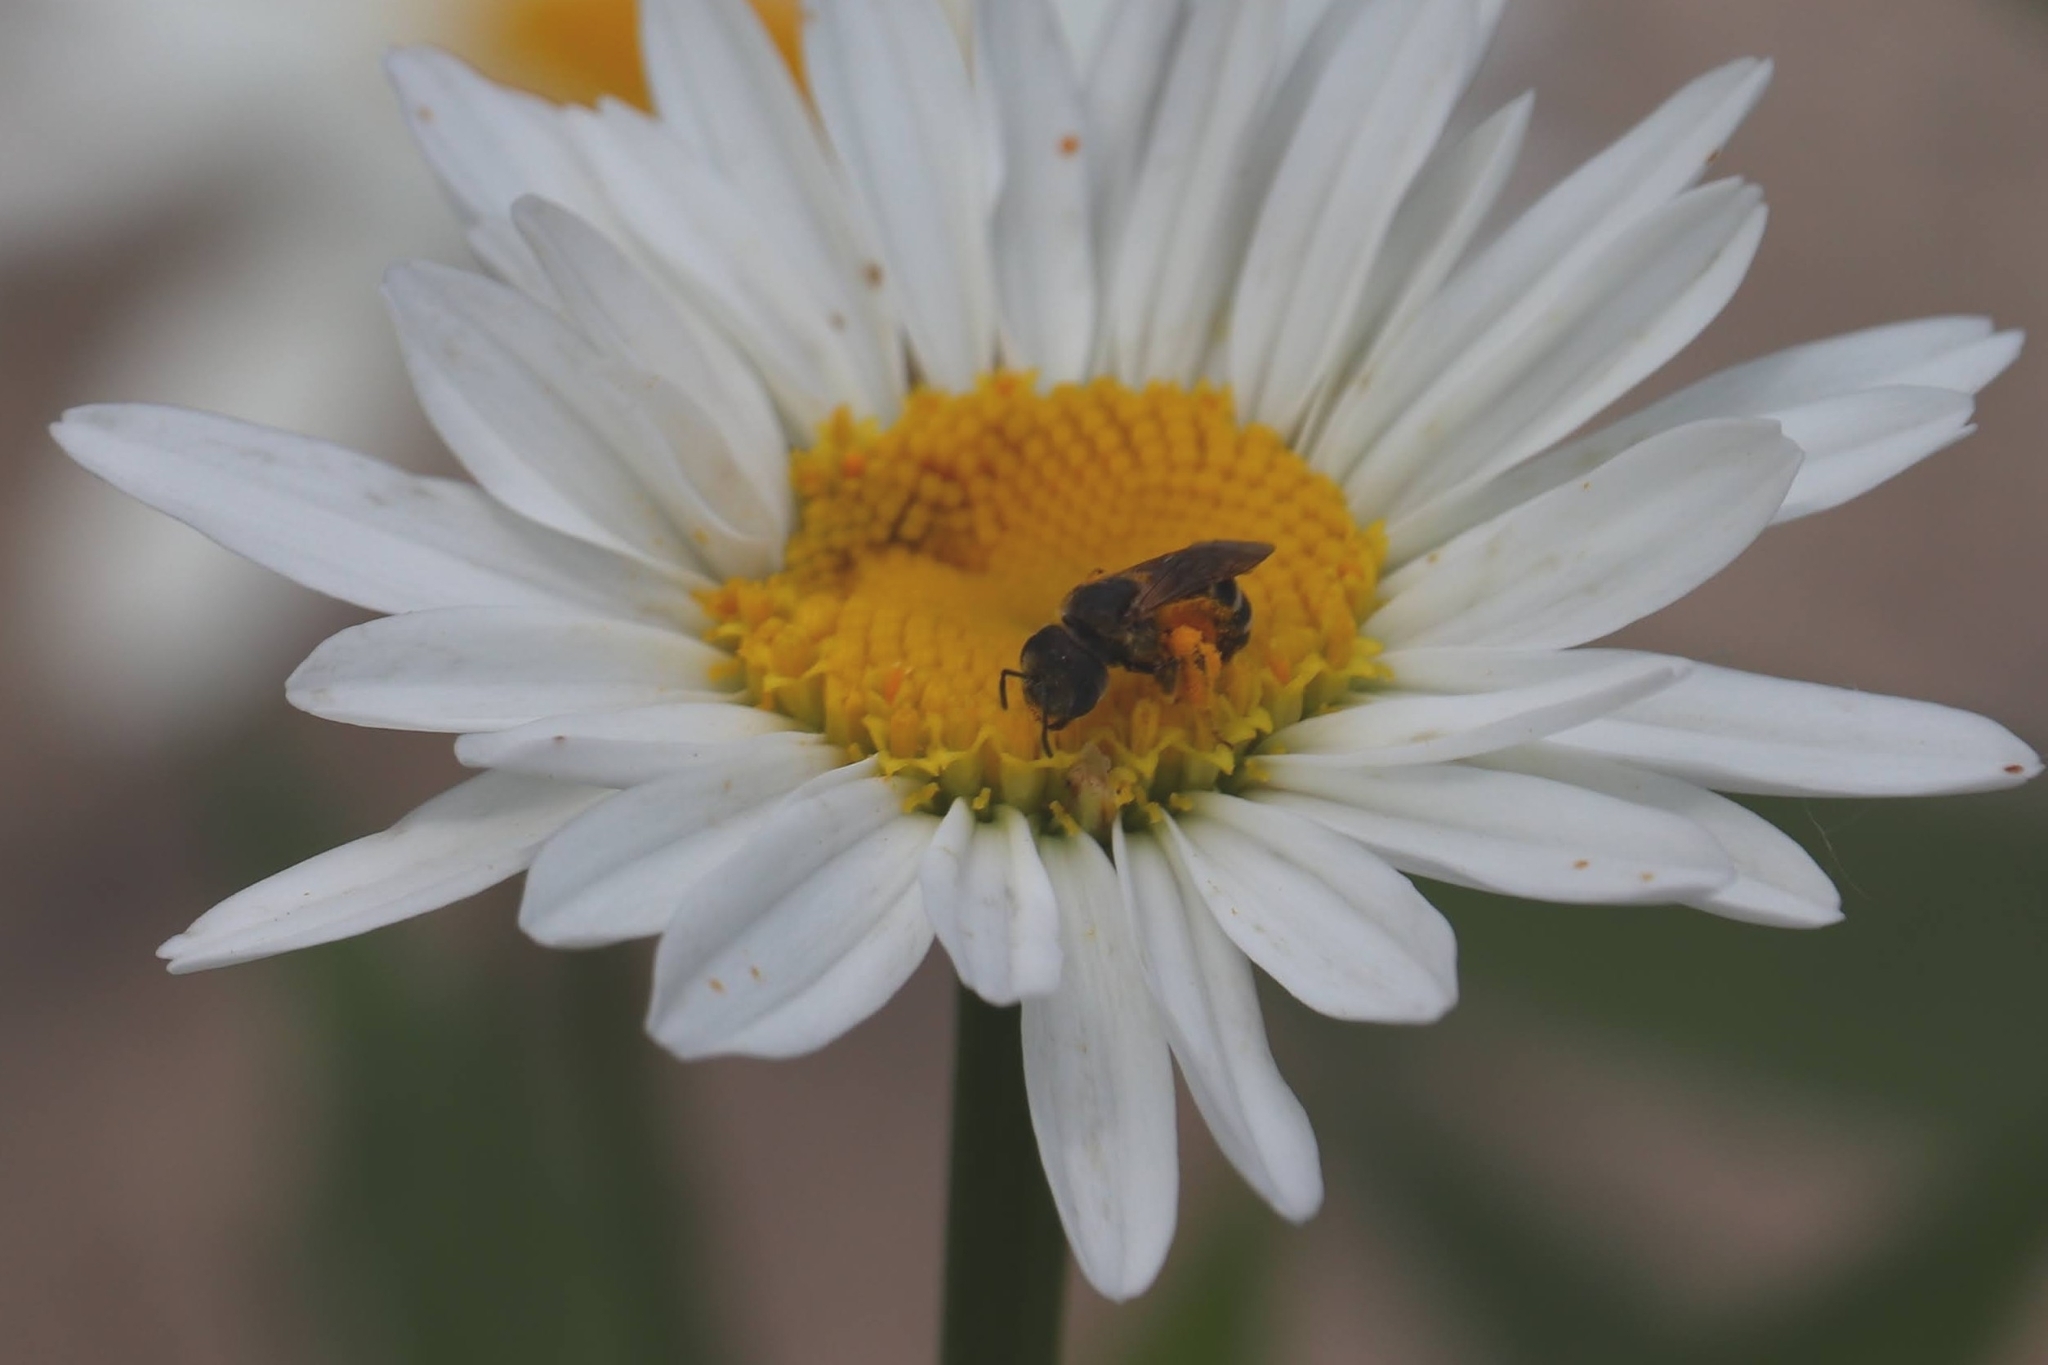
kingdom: Animalia
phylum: Arthropoda
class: Insecta
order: Hymenoptera
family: Halictidae
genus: Halictus
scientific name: Halictus ligatus
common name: Ligated furrow bee
